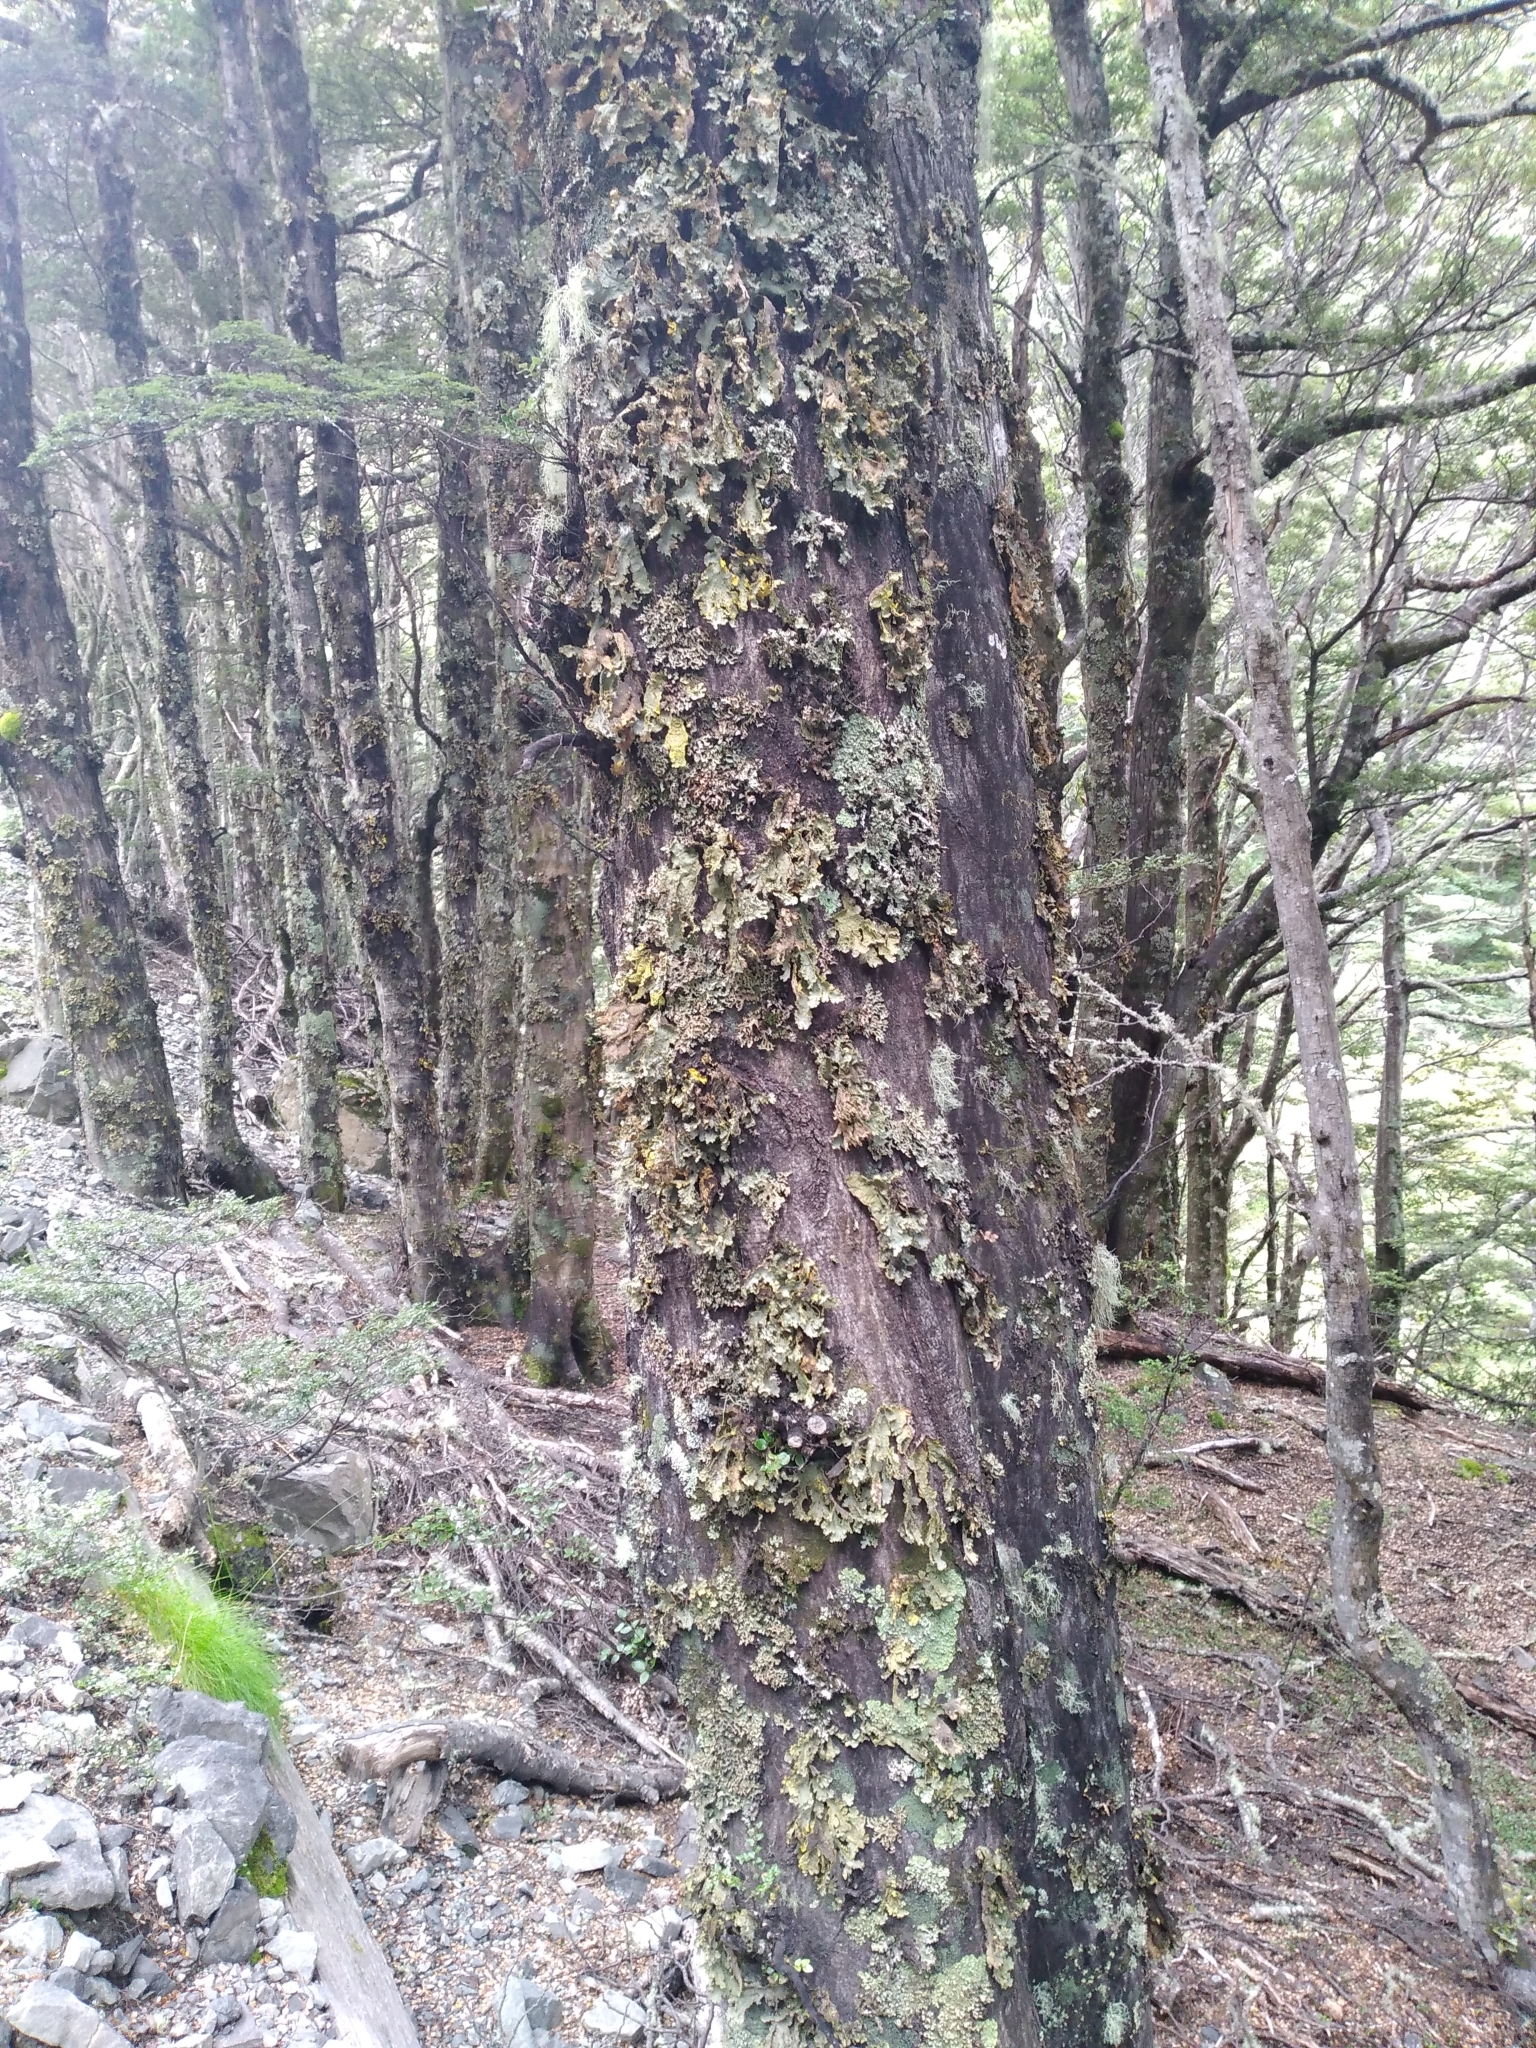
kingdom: Fungi
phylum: Ascomycota
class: Lecanoromycetes
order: Peltigerales
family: Lobariaceae
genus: Yarrumia
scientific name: Yarrumia colensoi
